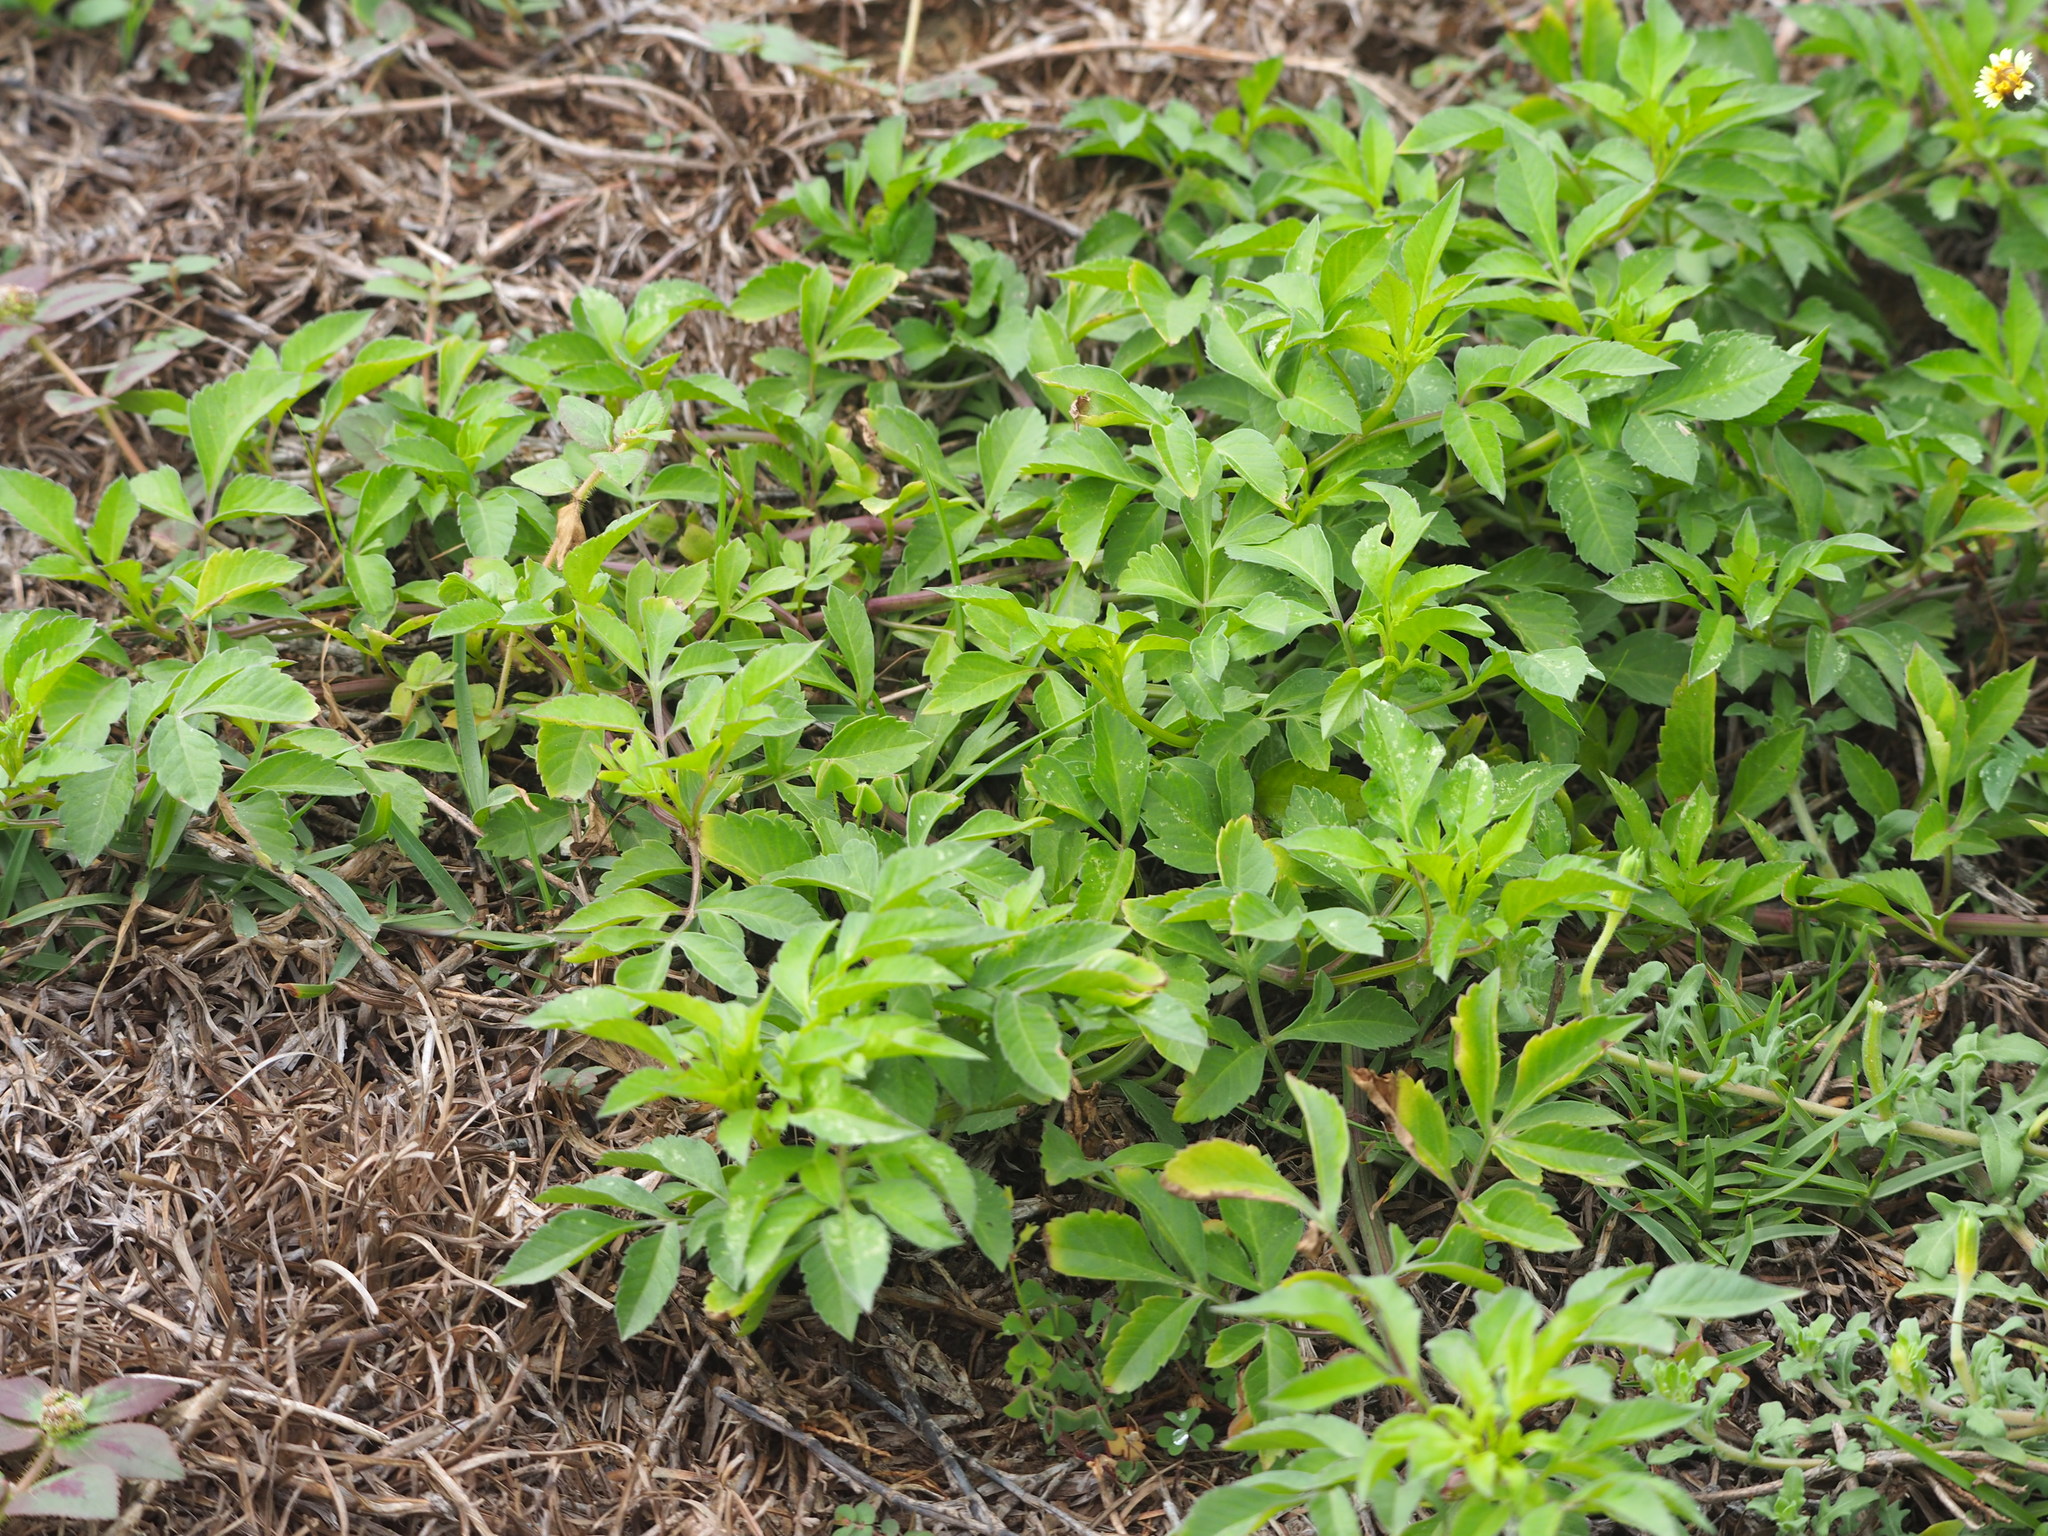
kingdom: Plantae
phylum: Tracheophyta
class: Magnoliopsida
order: Asterales
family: Asteraceae
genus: Bidens
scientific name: Bidens alba
